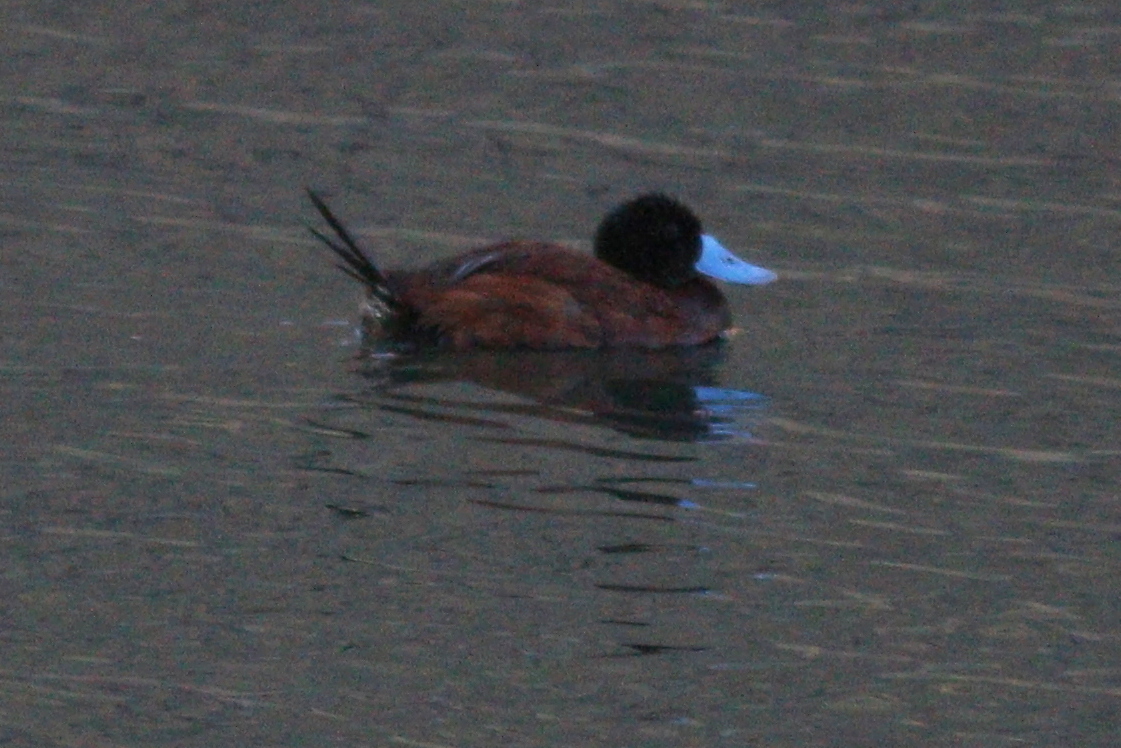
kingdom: Animalia
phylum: Chordata
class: Aves
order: Anseriformes
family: Anatidae
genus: Oxyura
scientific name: Oxyura ferruginea
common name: Andean duck
